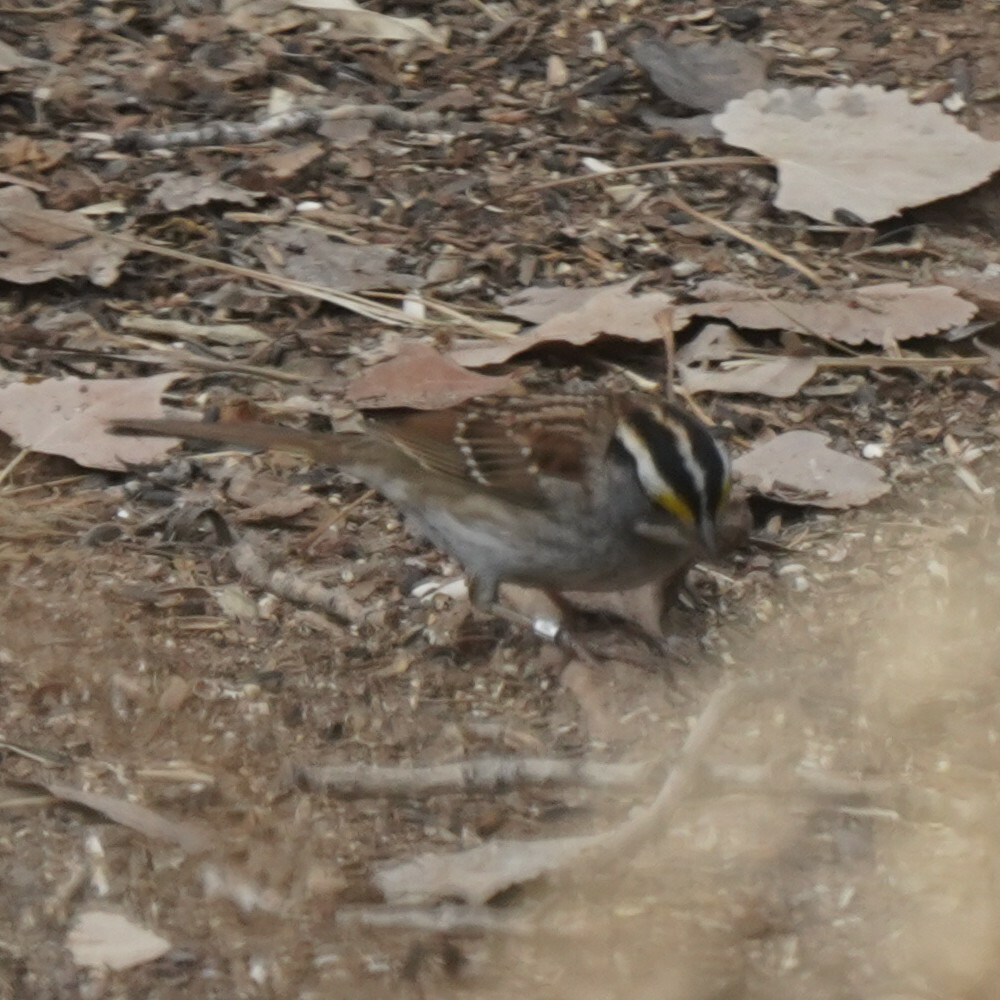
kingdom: Animalia
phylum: Chordata
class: Aves
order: Passeriformes
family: Passerellidae
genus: Zonotrichia
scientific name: Zonotrichia albicollis
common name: White-throated sparrow
